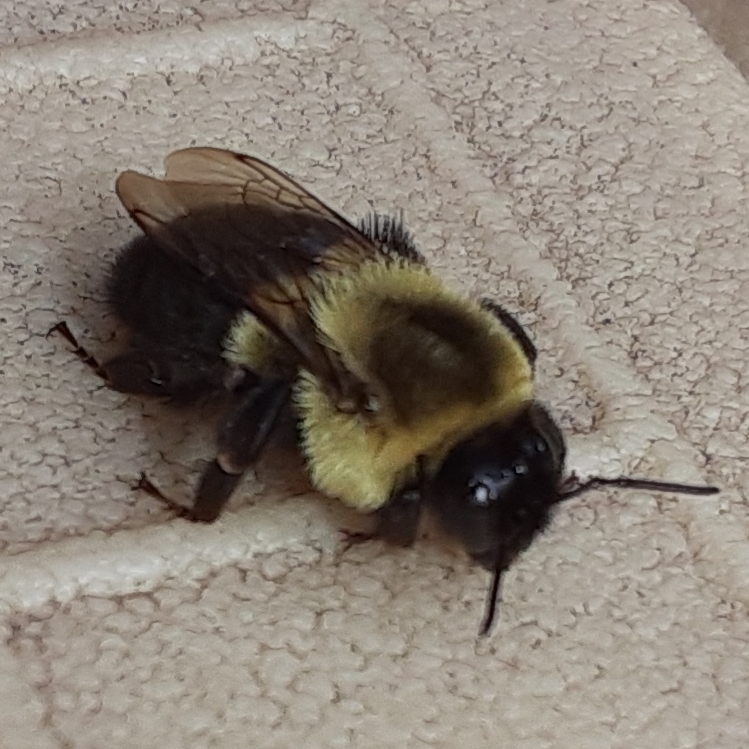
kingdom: Animalia
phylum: Arthropoda
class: Insecta
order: Hymenoptera
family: Apidae
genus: Bombus
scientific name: Bombus impatiens
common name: Common eastern bumble bee
